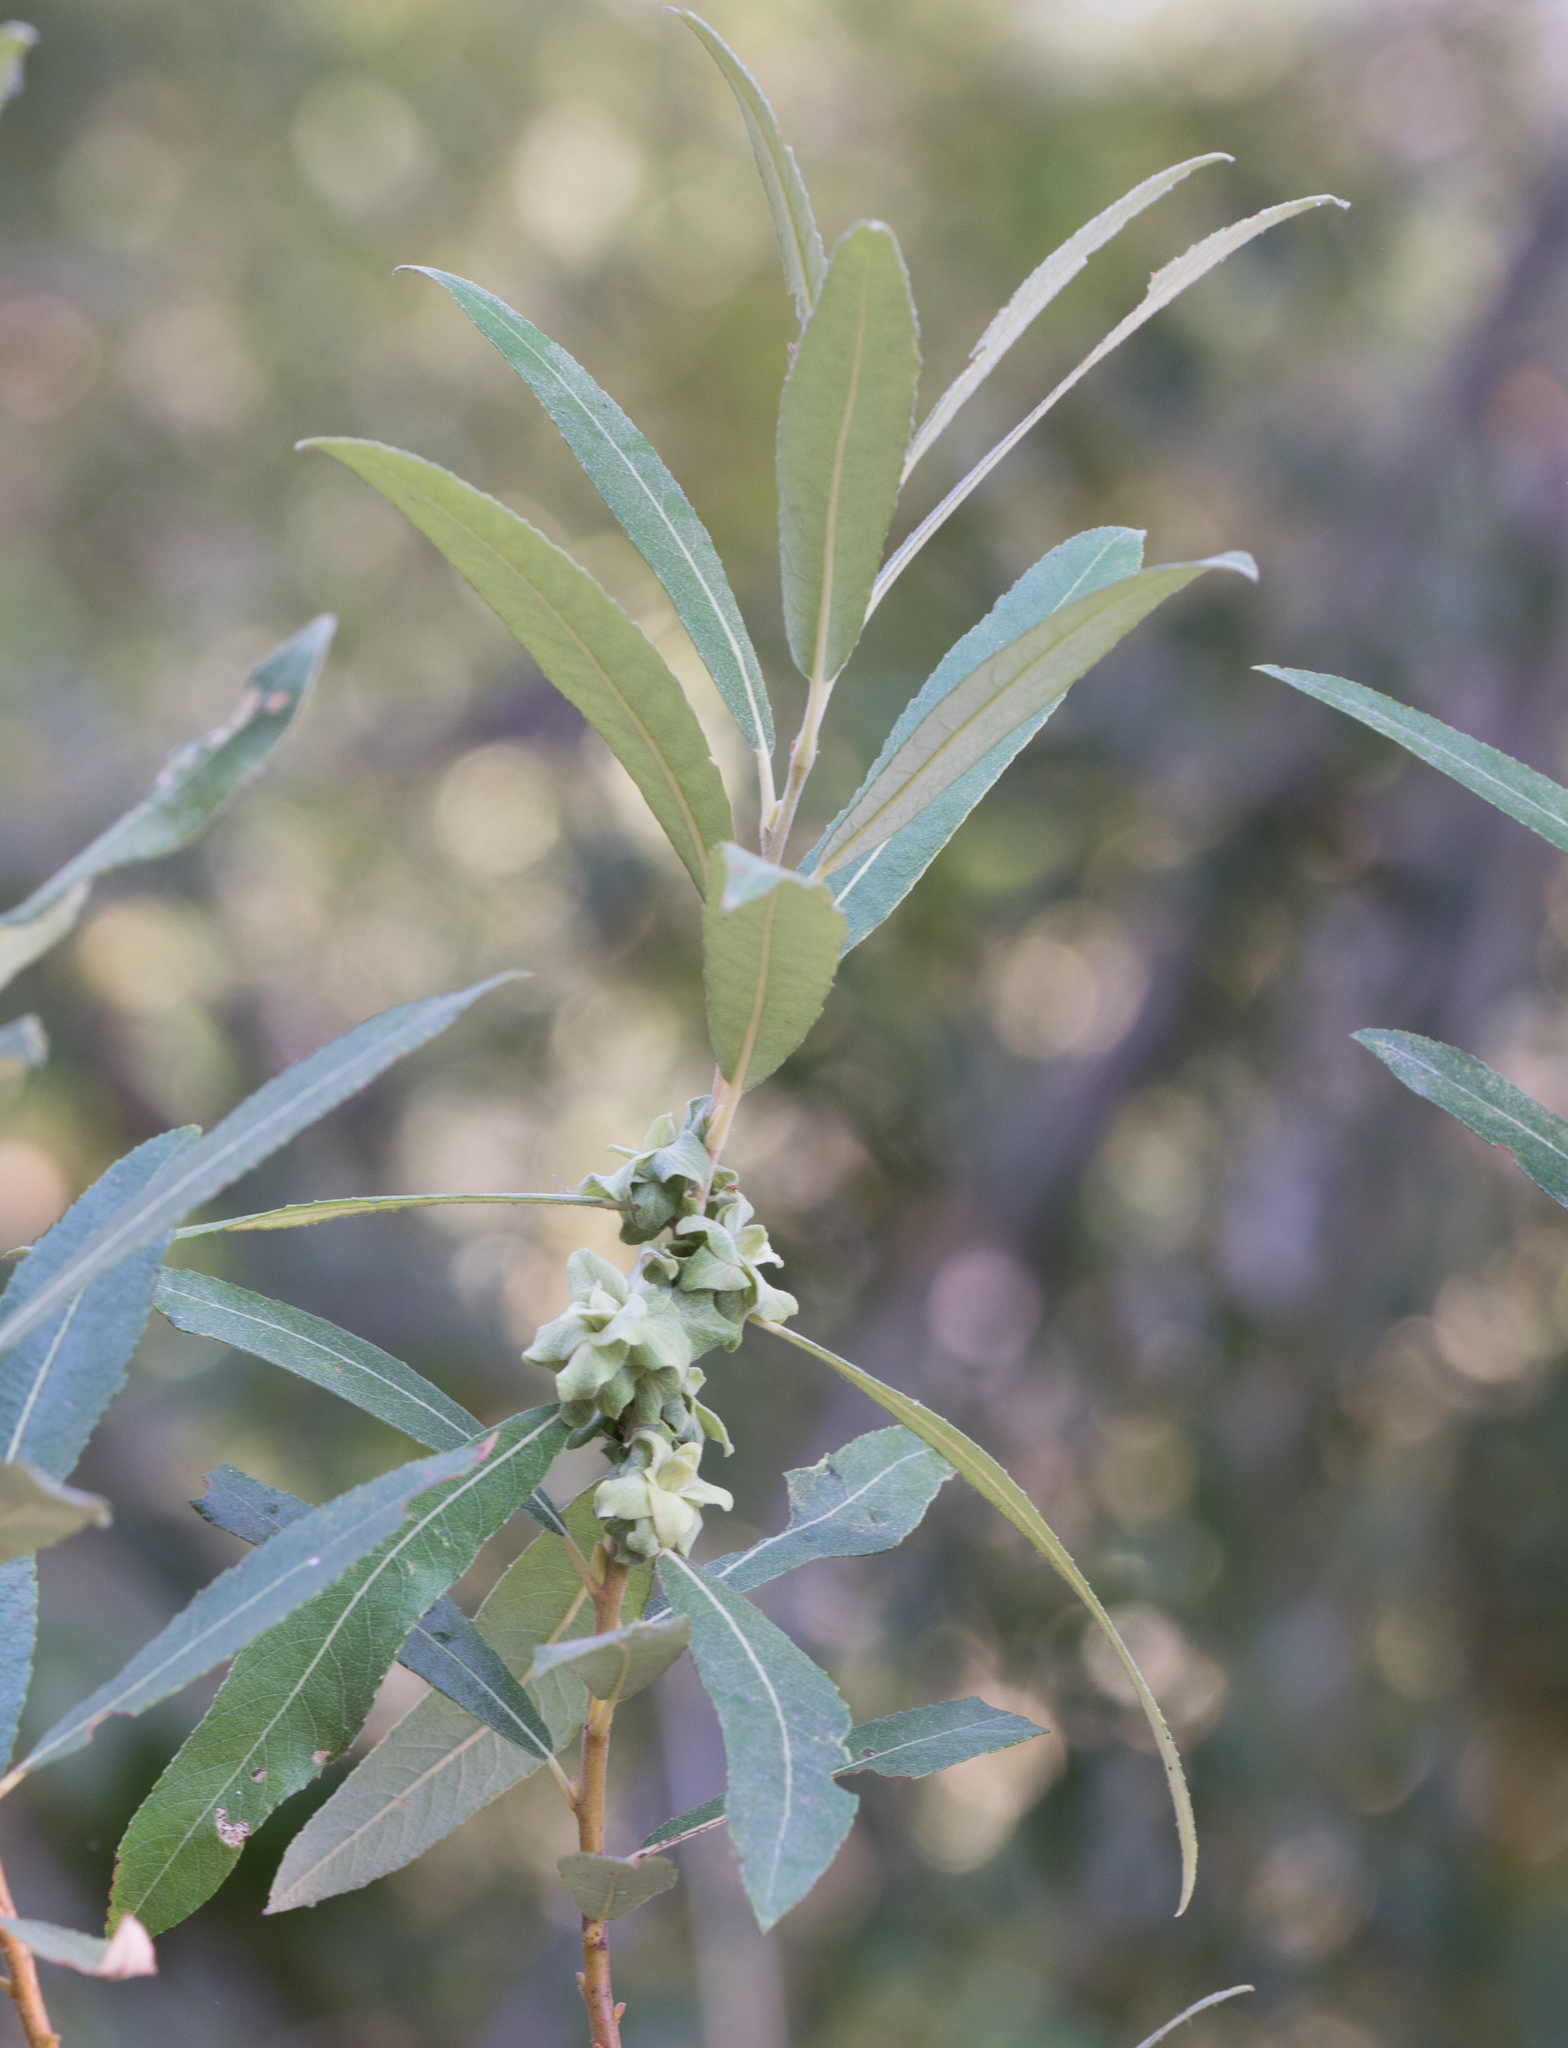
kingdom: Animalia
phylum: Arthropoda
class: Insecta
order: Diptera
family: Cecidomyiidae
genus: Rabdophaga
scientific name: Rabdophaga salicisbrassicoides
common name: Willow cabbagegall midge
